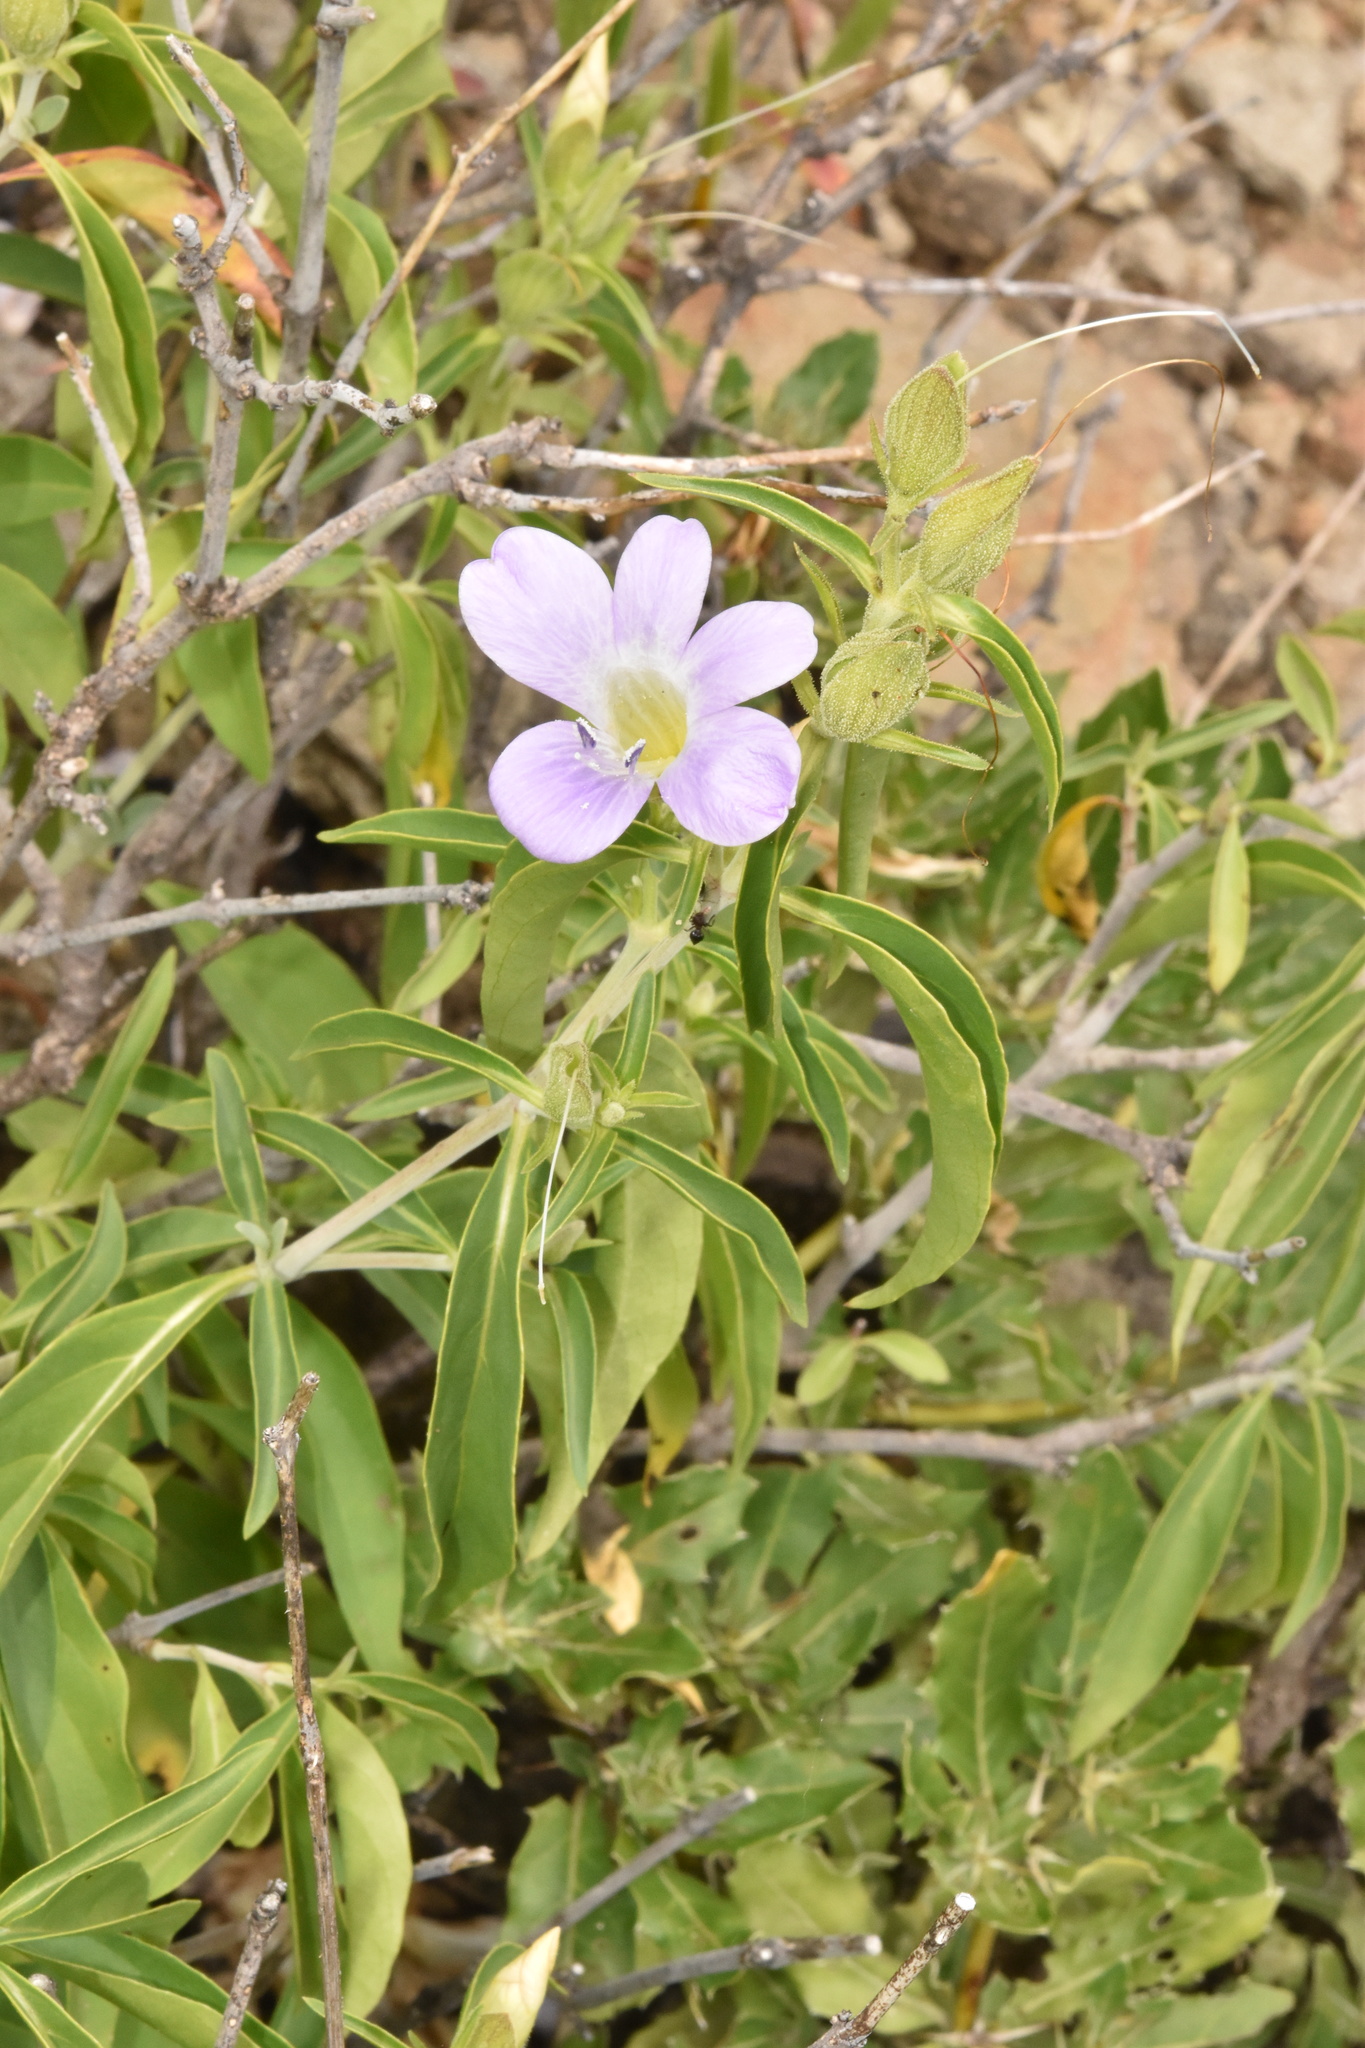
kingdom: Plantae
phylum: Tracheophyta
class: Magnoliopsida
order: Lamiales
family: Acanthaceae
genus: Barleria
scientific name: Barleria lancifolia
